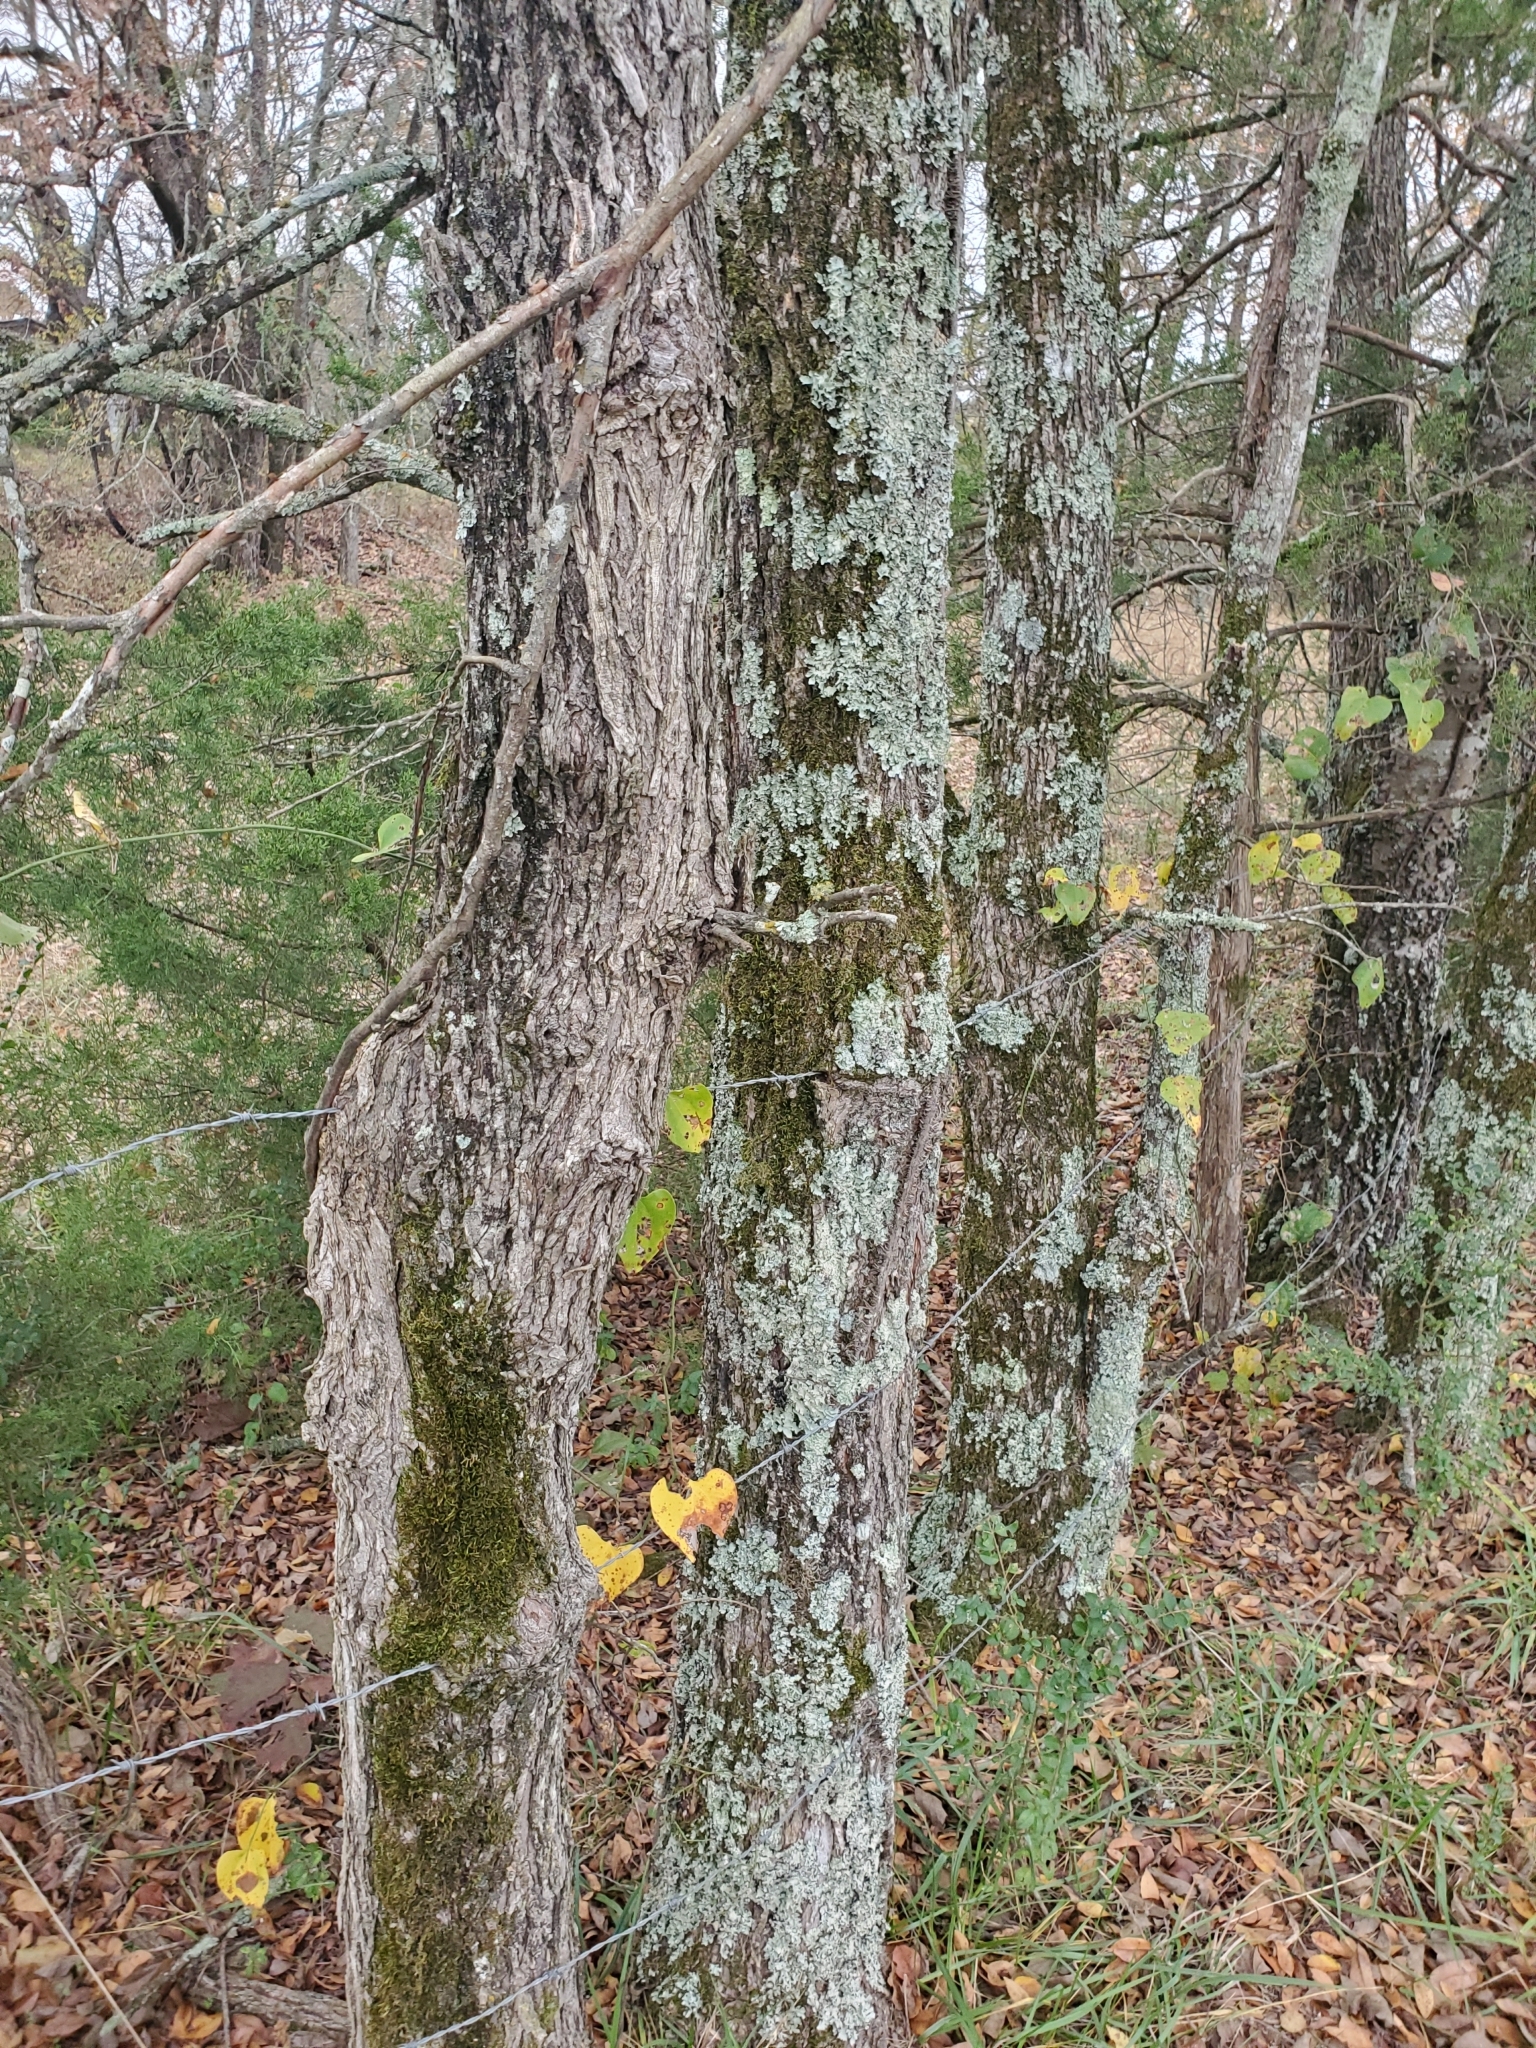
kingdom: Plantae
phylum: Tracheophyta
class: Magnoliopsida
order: Rosales
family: Ulmaceae
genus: Ulmus
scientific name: Ulmus alata
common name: Winged elm
